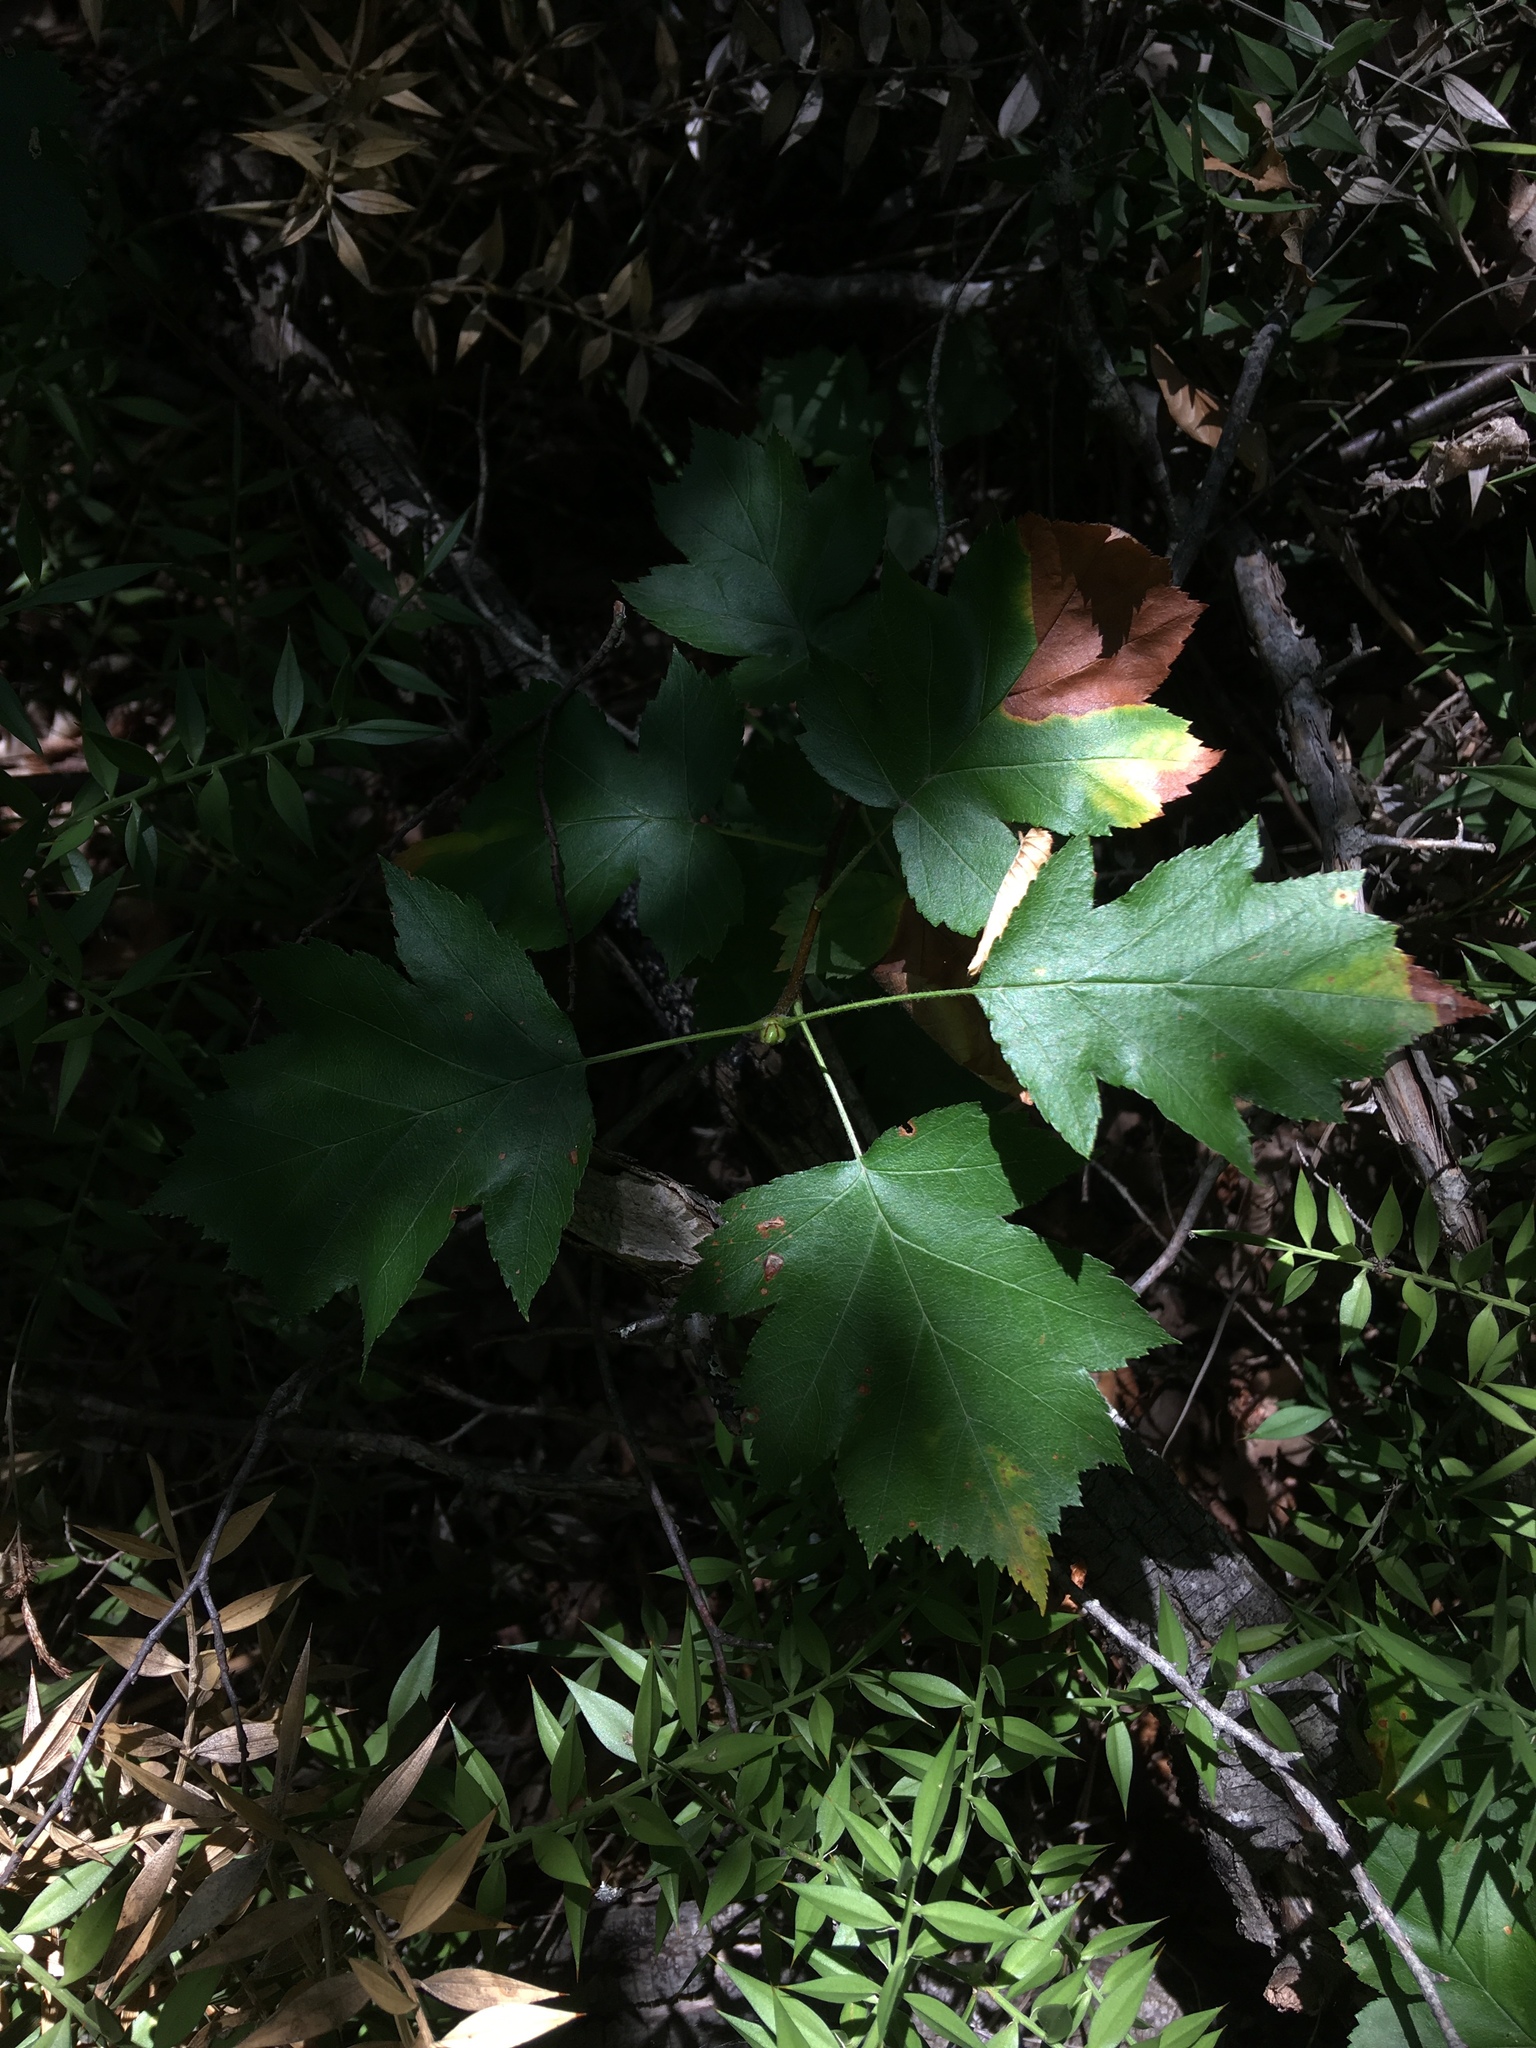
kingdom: Plantae
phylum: Tracheophyta
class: Magnoliopsida
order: Rosales
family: Rosaceae
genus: Torminalis
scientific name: Torminalis glaberrima
